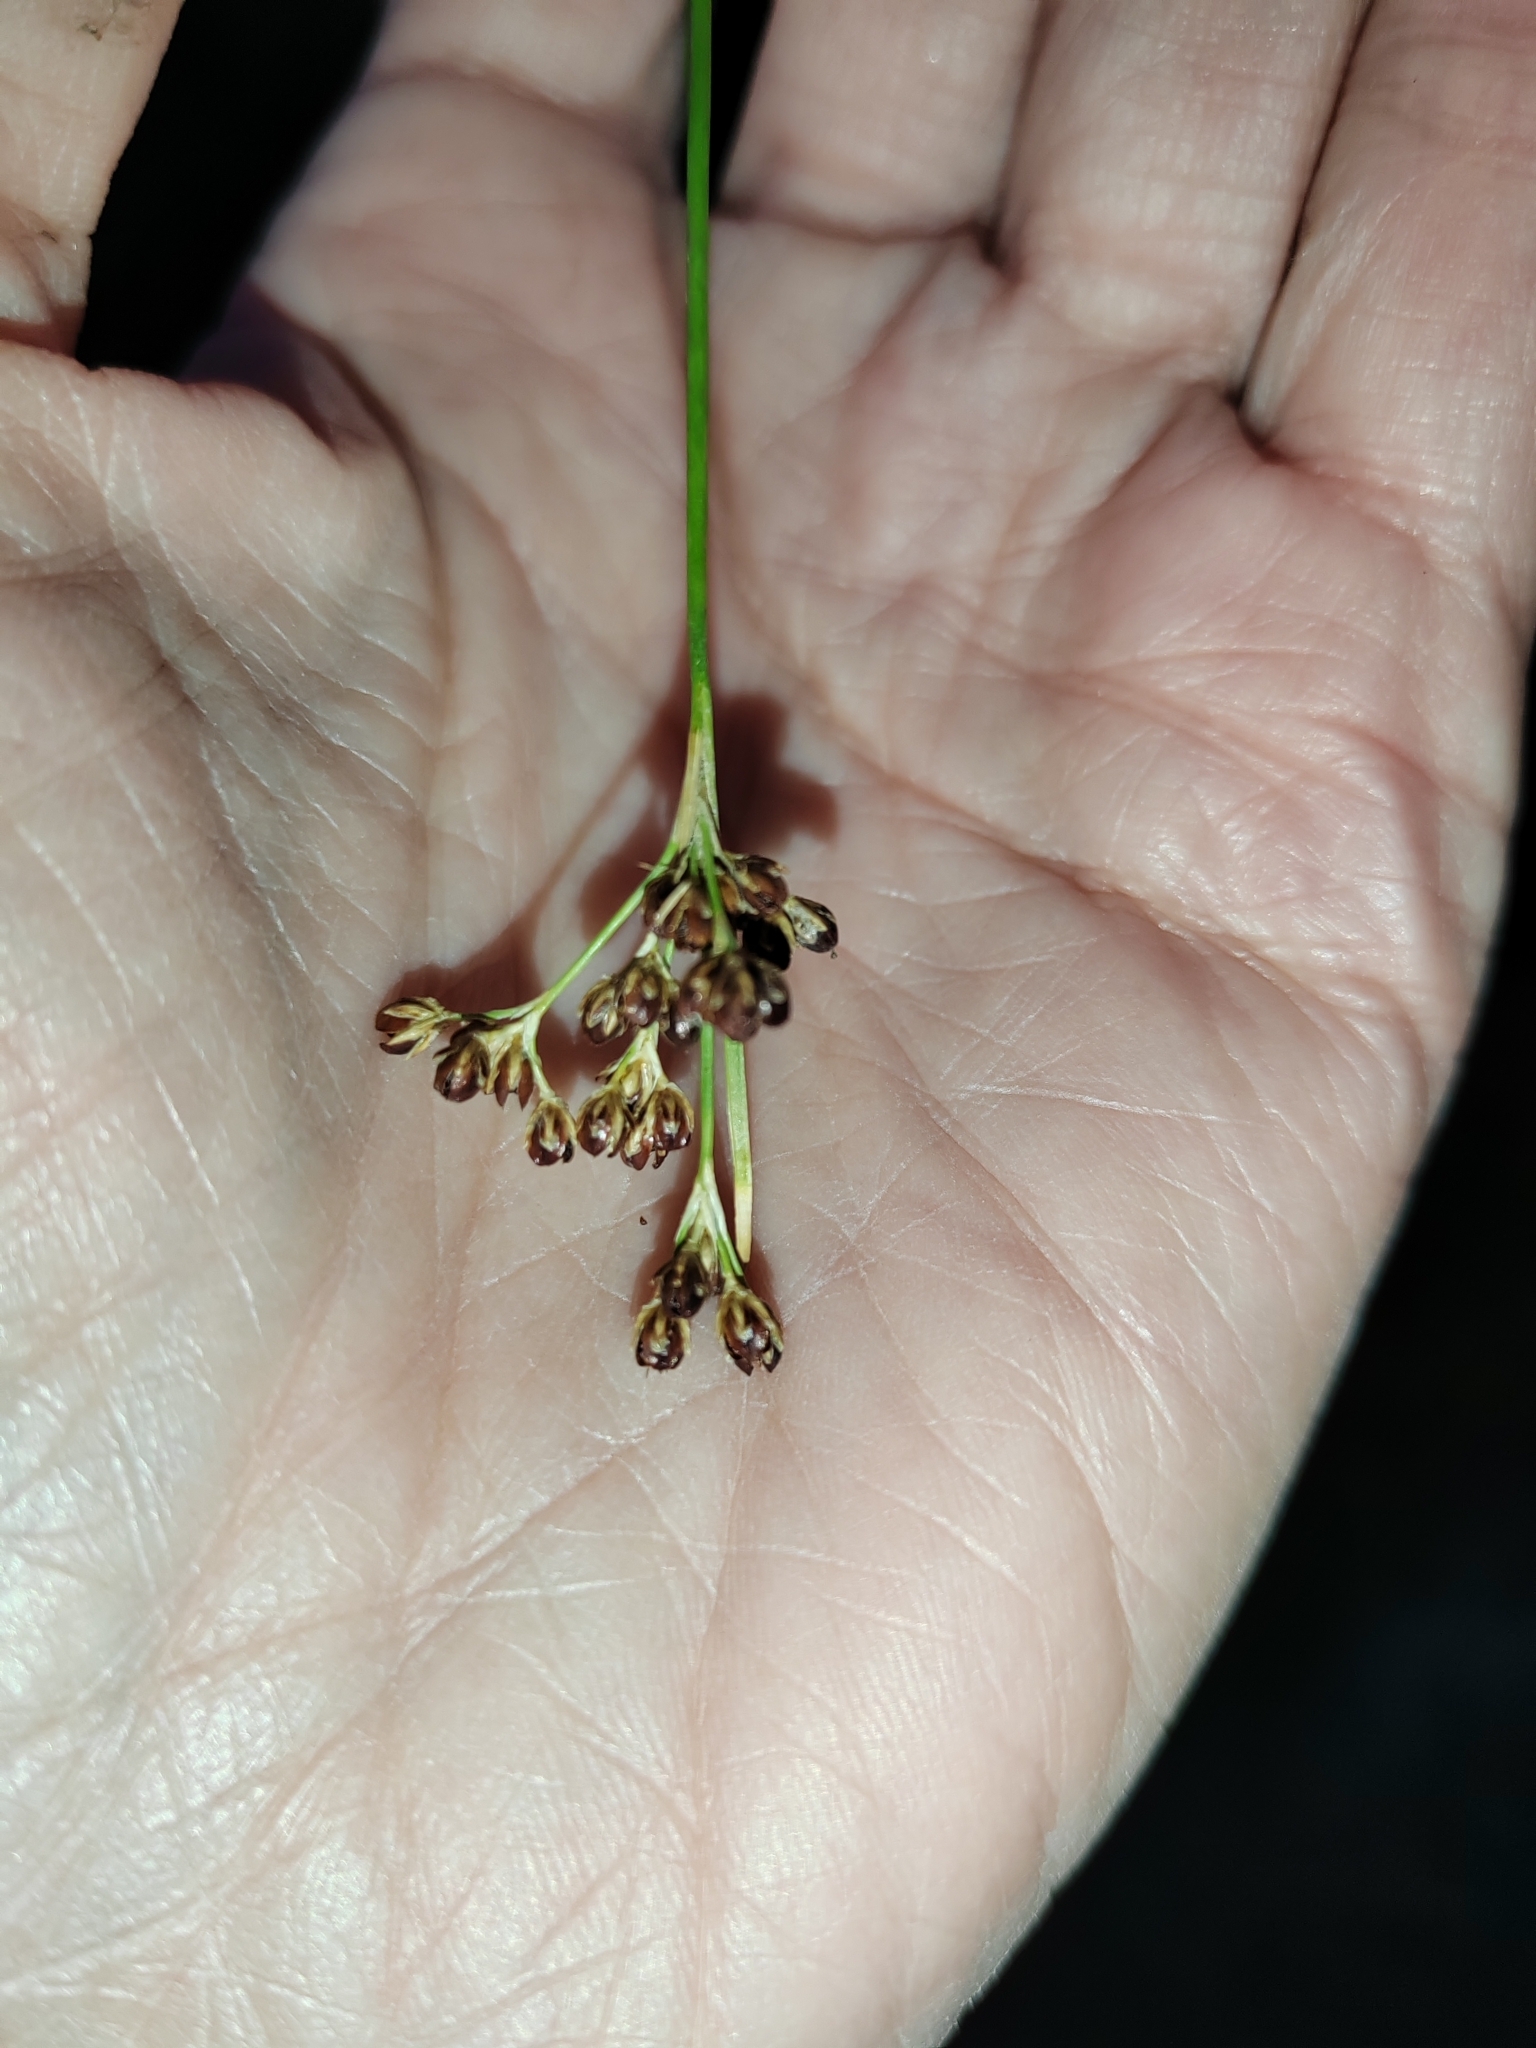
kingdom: Plantae
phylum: Tracheophyta
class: Liliopsida
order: Poales
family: Juncaceae
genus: Juncus
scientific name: Juncus compressus
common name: Round-fruited rush
